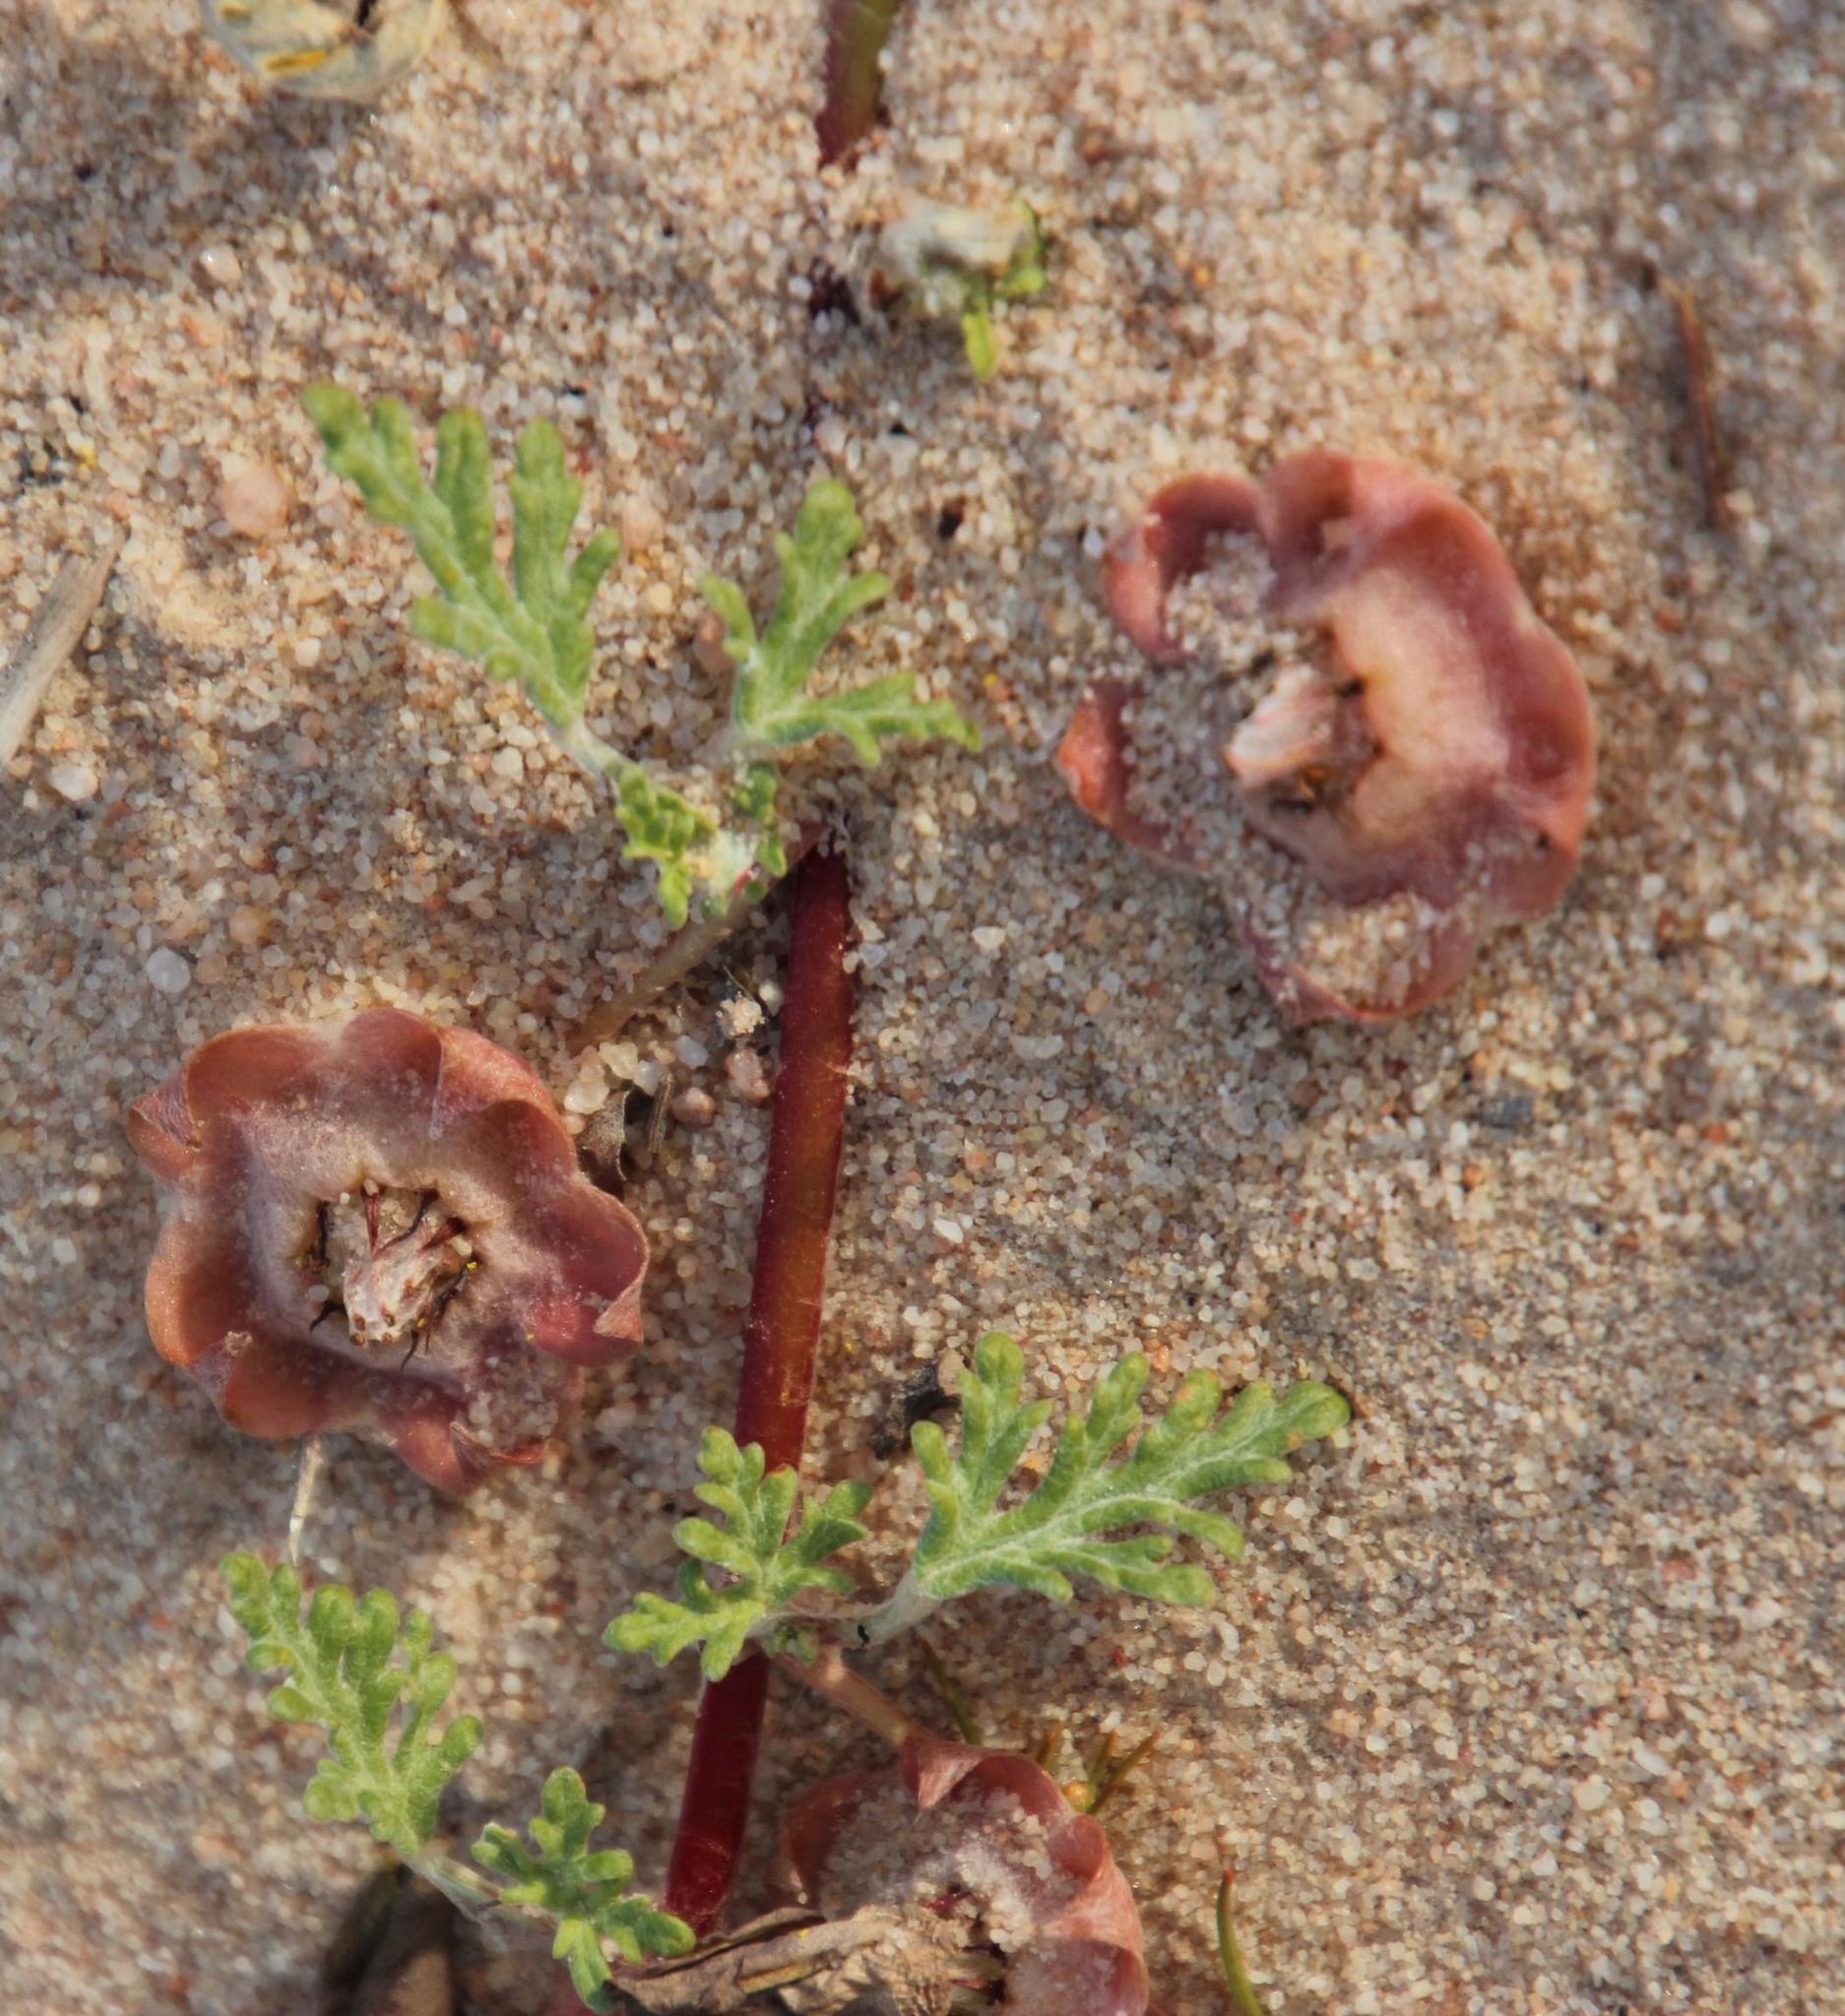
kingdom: Plantae
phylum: Tracheophyta
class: Magnoliopsida
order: Malvales
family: Neuradaceae
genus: Grielum
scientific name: Grielum humifusum
